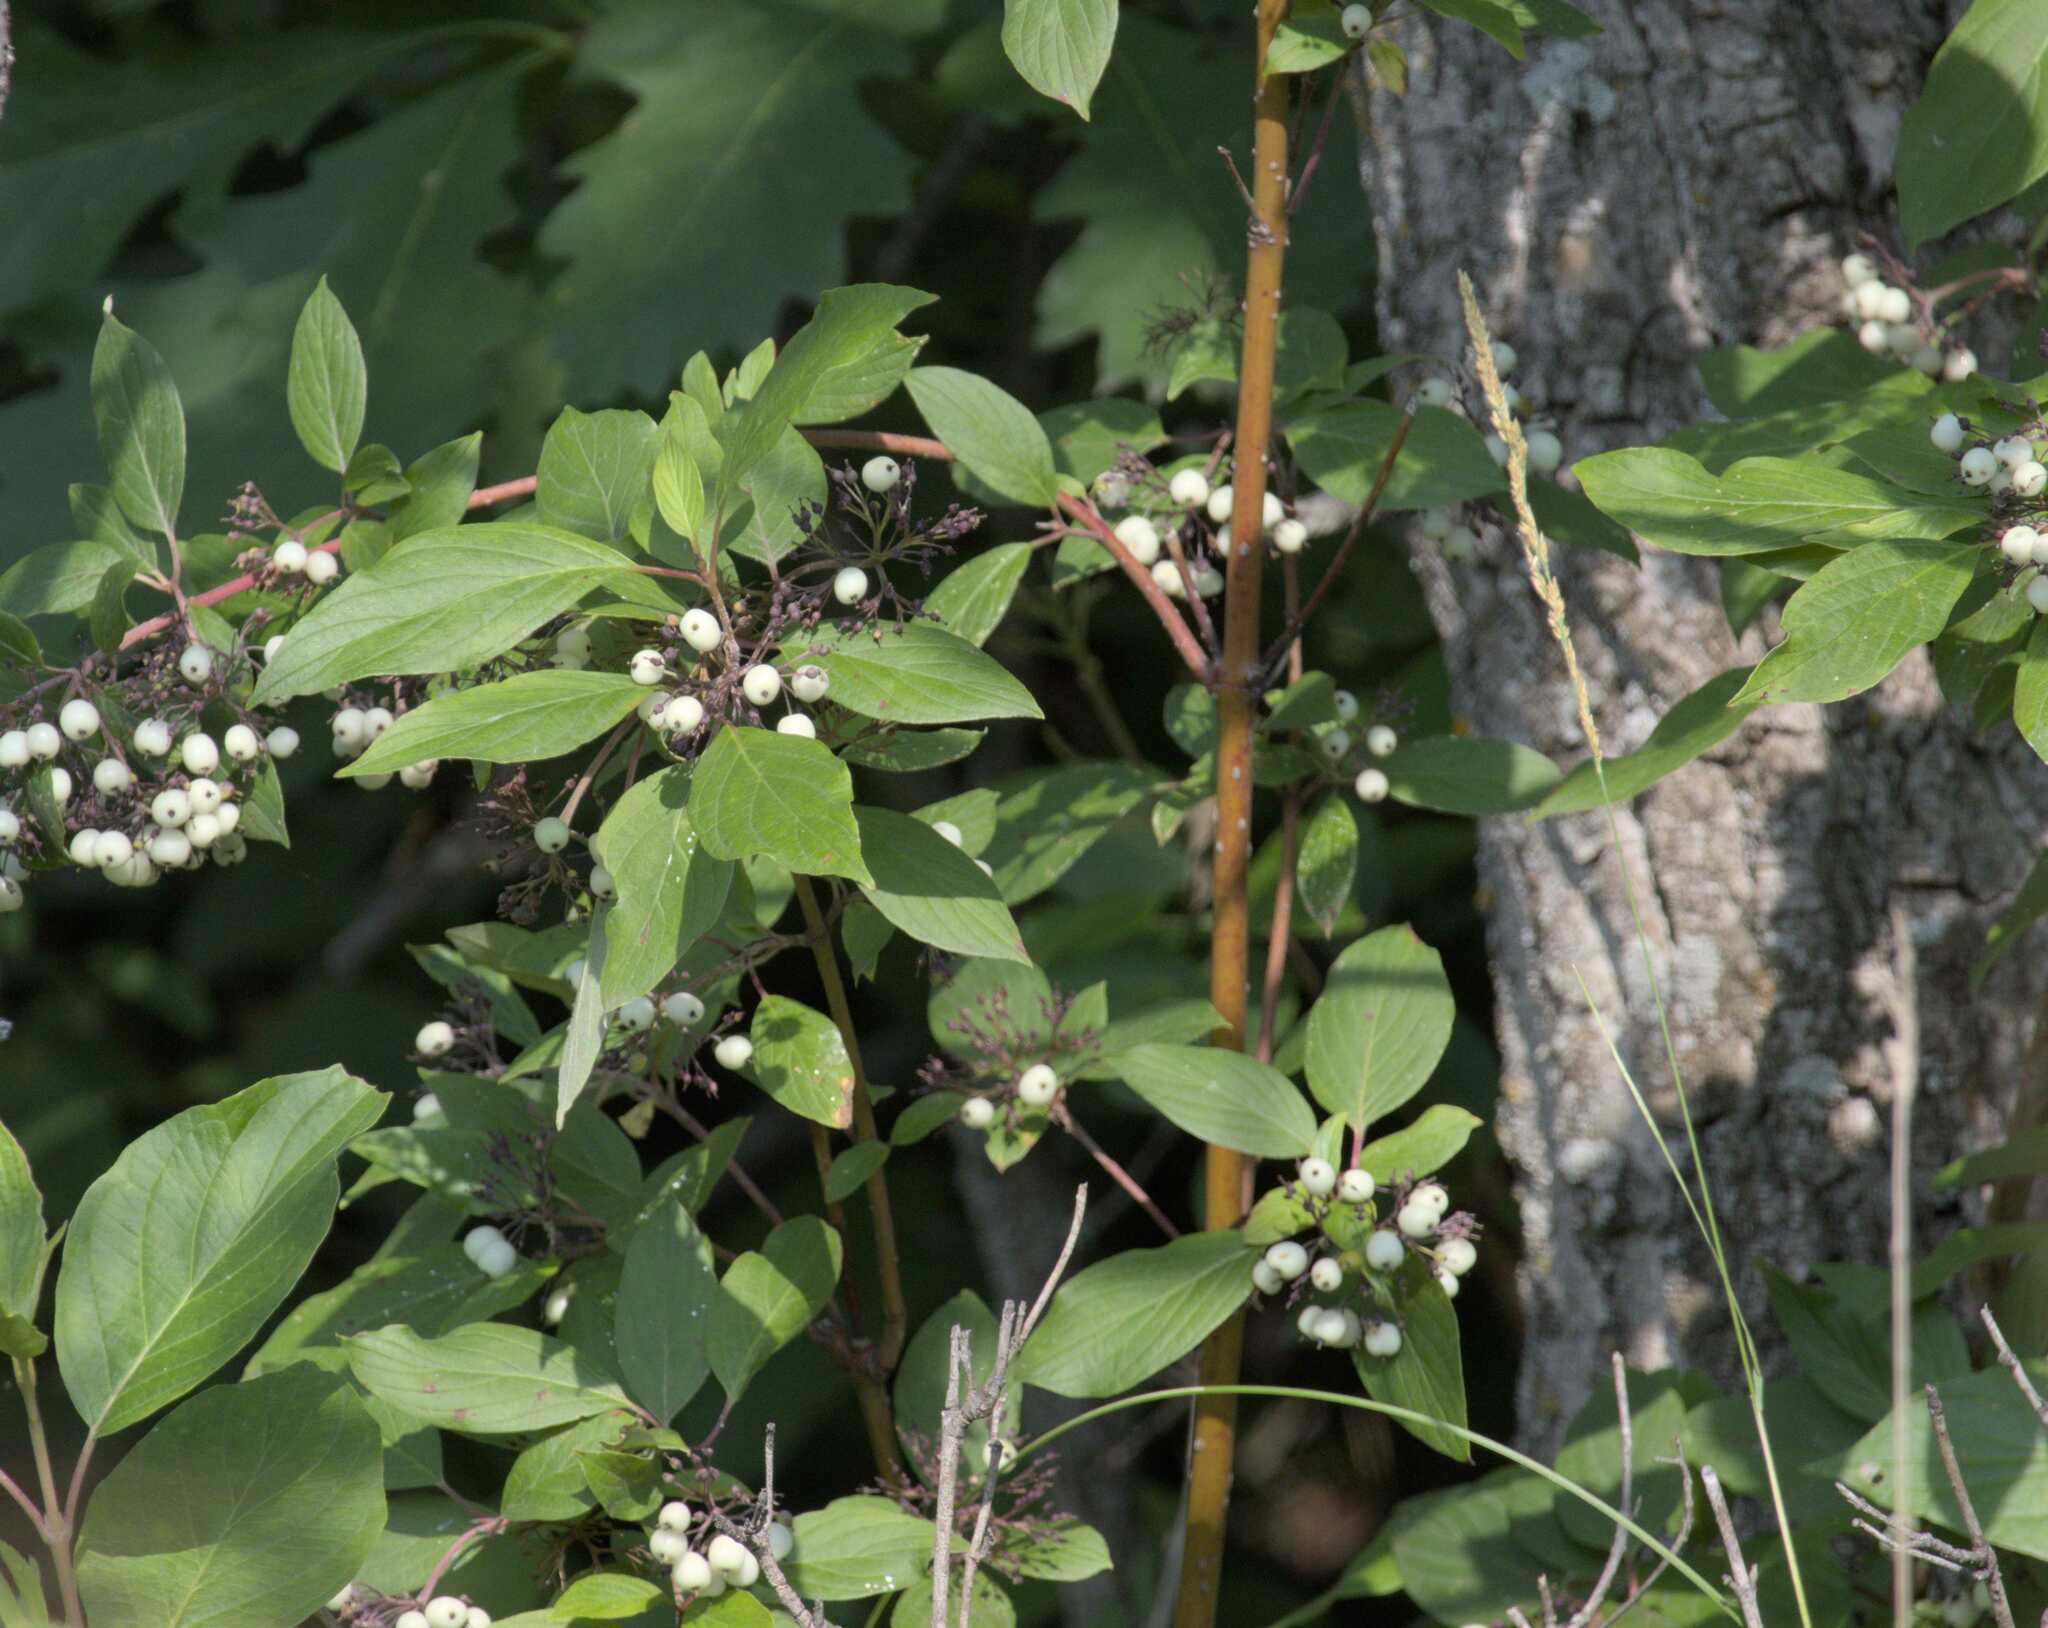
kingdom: Plantae
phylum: Tracheophyta
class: Magnoliopsida
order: Cornales
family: Cornaceae
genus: Cornus
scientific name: Cornus sericea
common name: Red-osier dogwood
